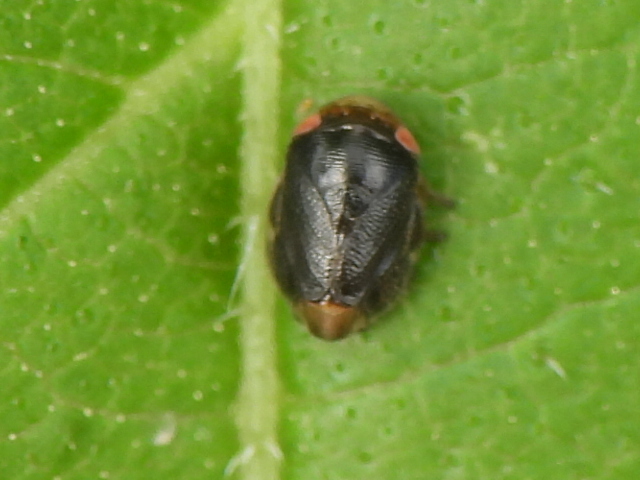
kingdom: Animalia
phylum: Arthropoda
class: Insecta
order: Hemiptera
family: Clastopteridae
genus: Clastoptera
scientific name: Clastoptera xanthocephala
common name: Sunflower spittlebug
